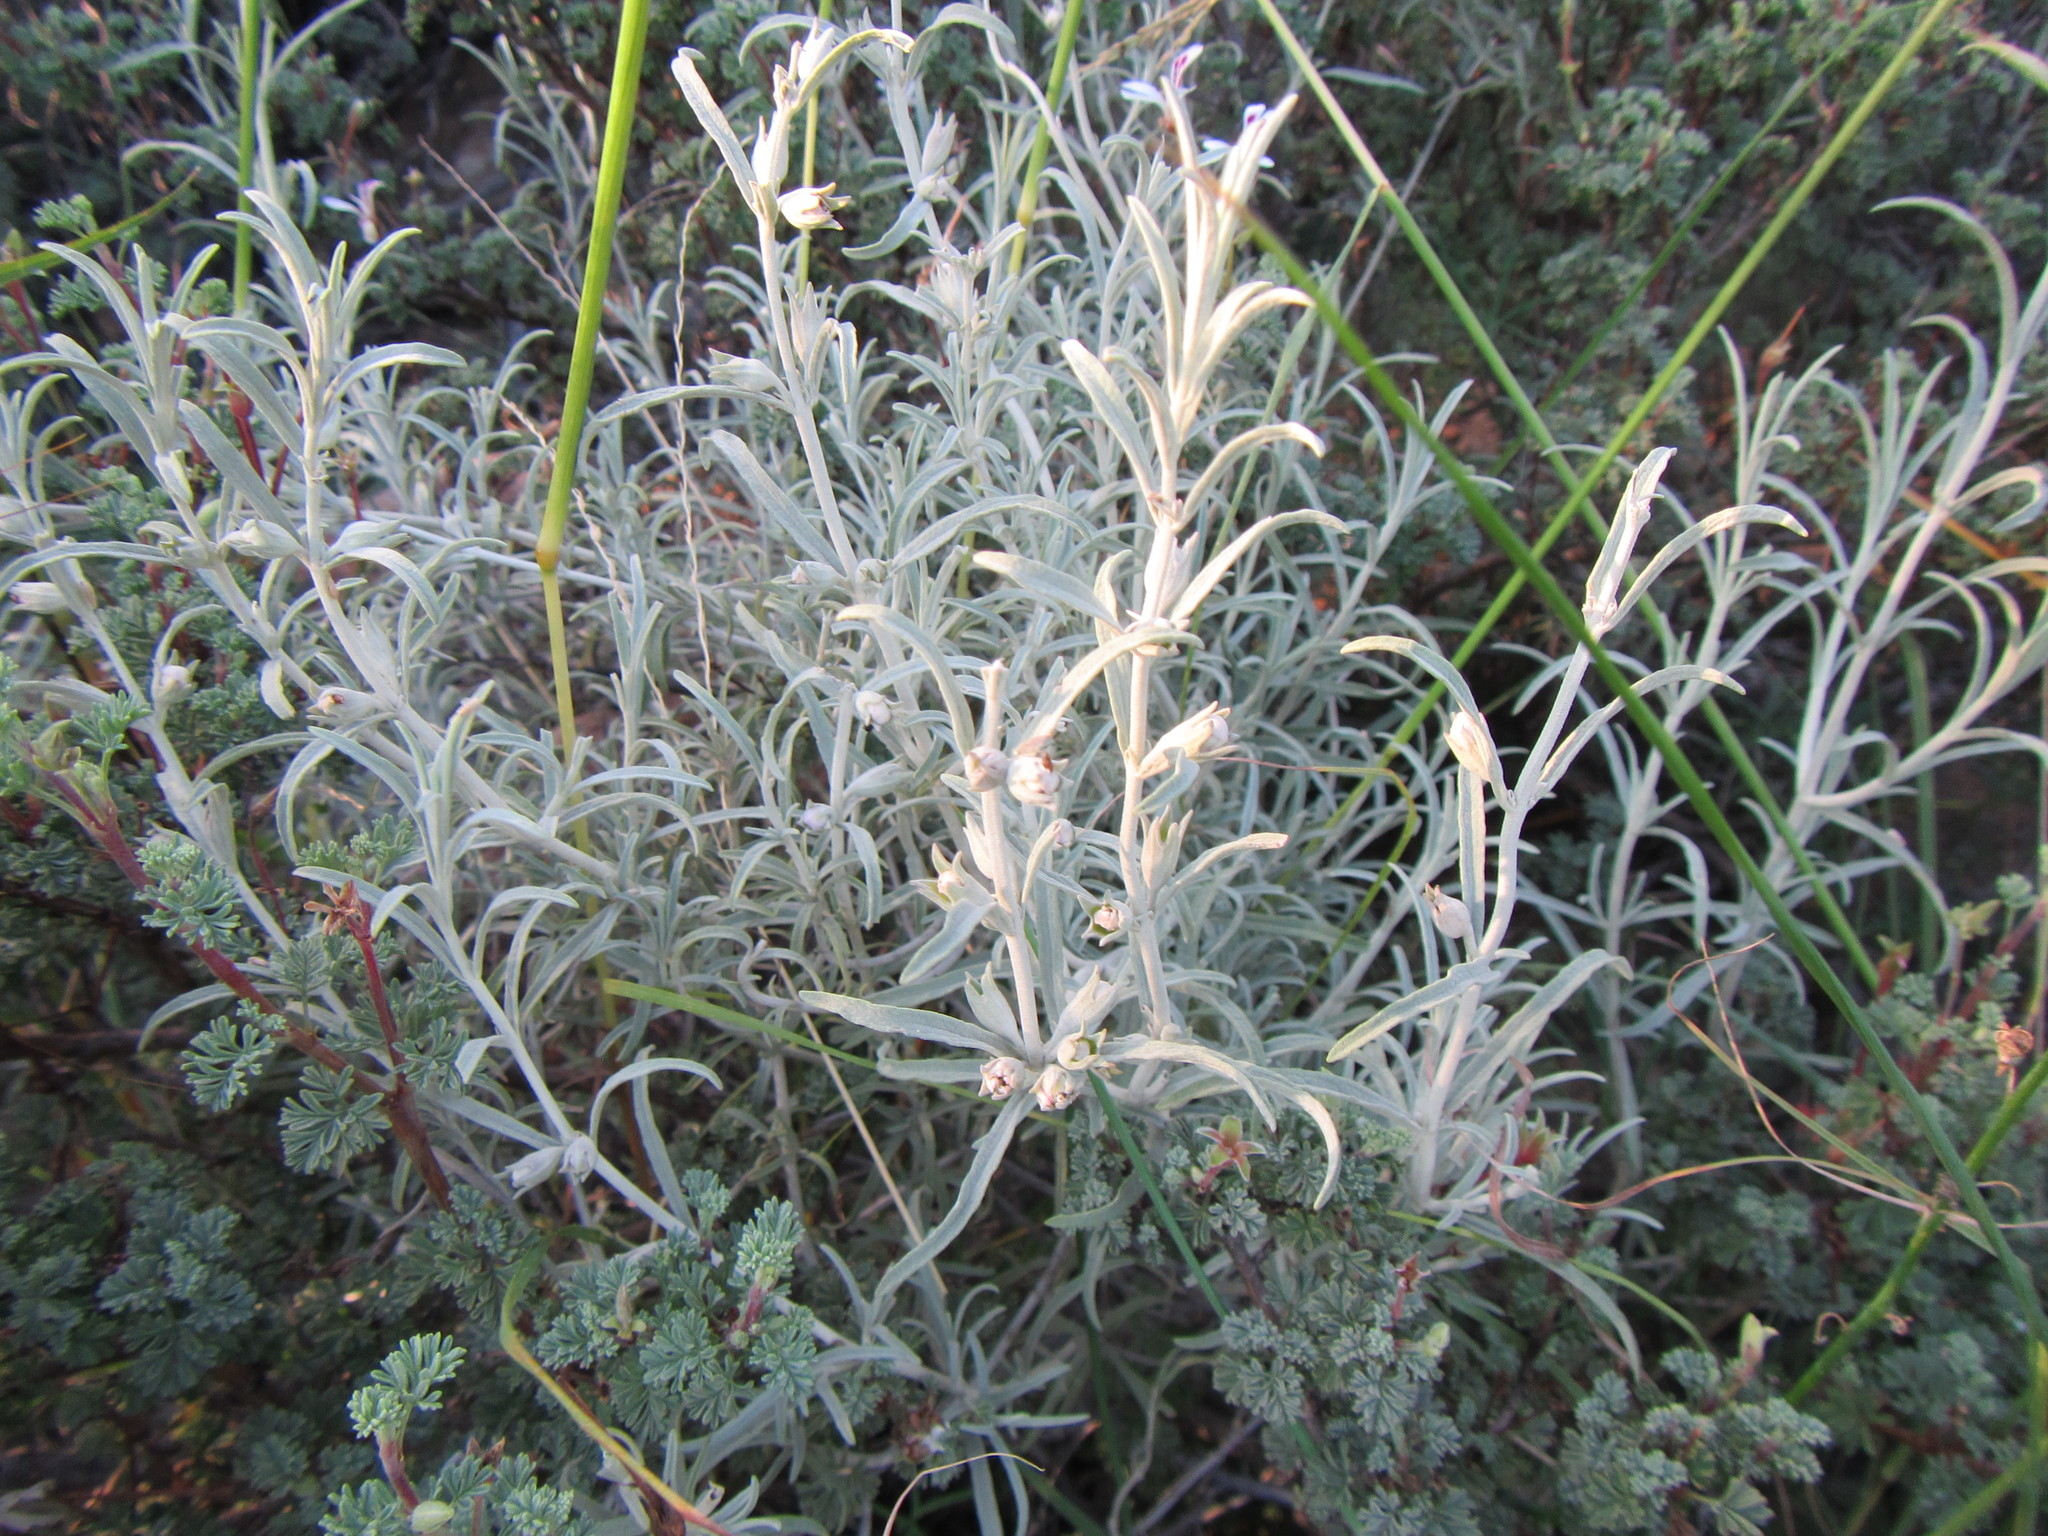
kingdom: Plantae
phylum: Tracheophyta
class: Magnoliopsida
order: Lamiales
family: Lamiaceae
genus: Stachys
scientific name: Stachys rugosa
